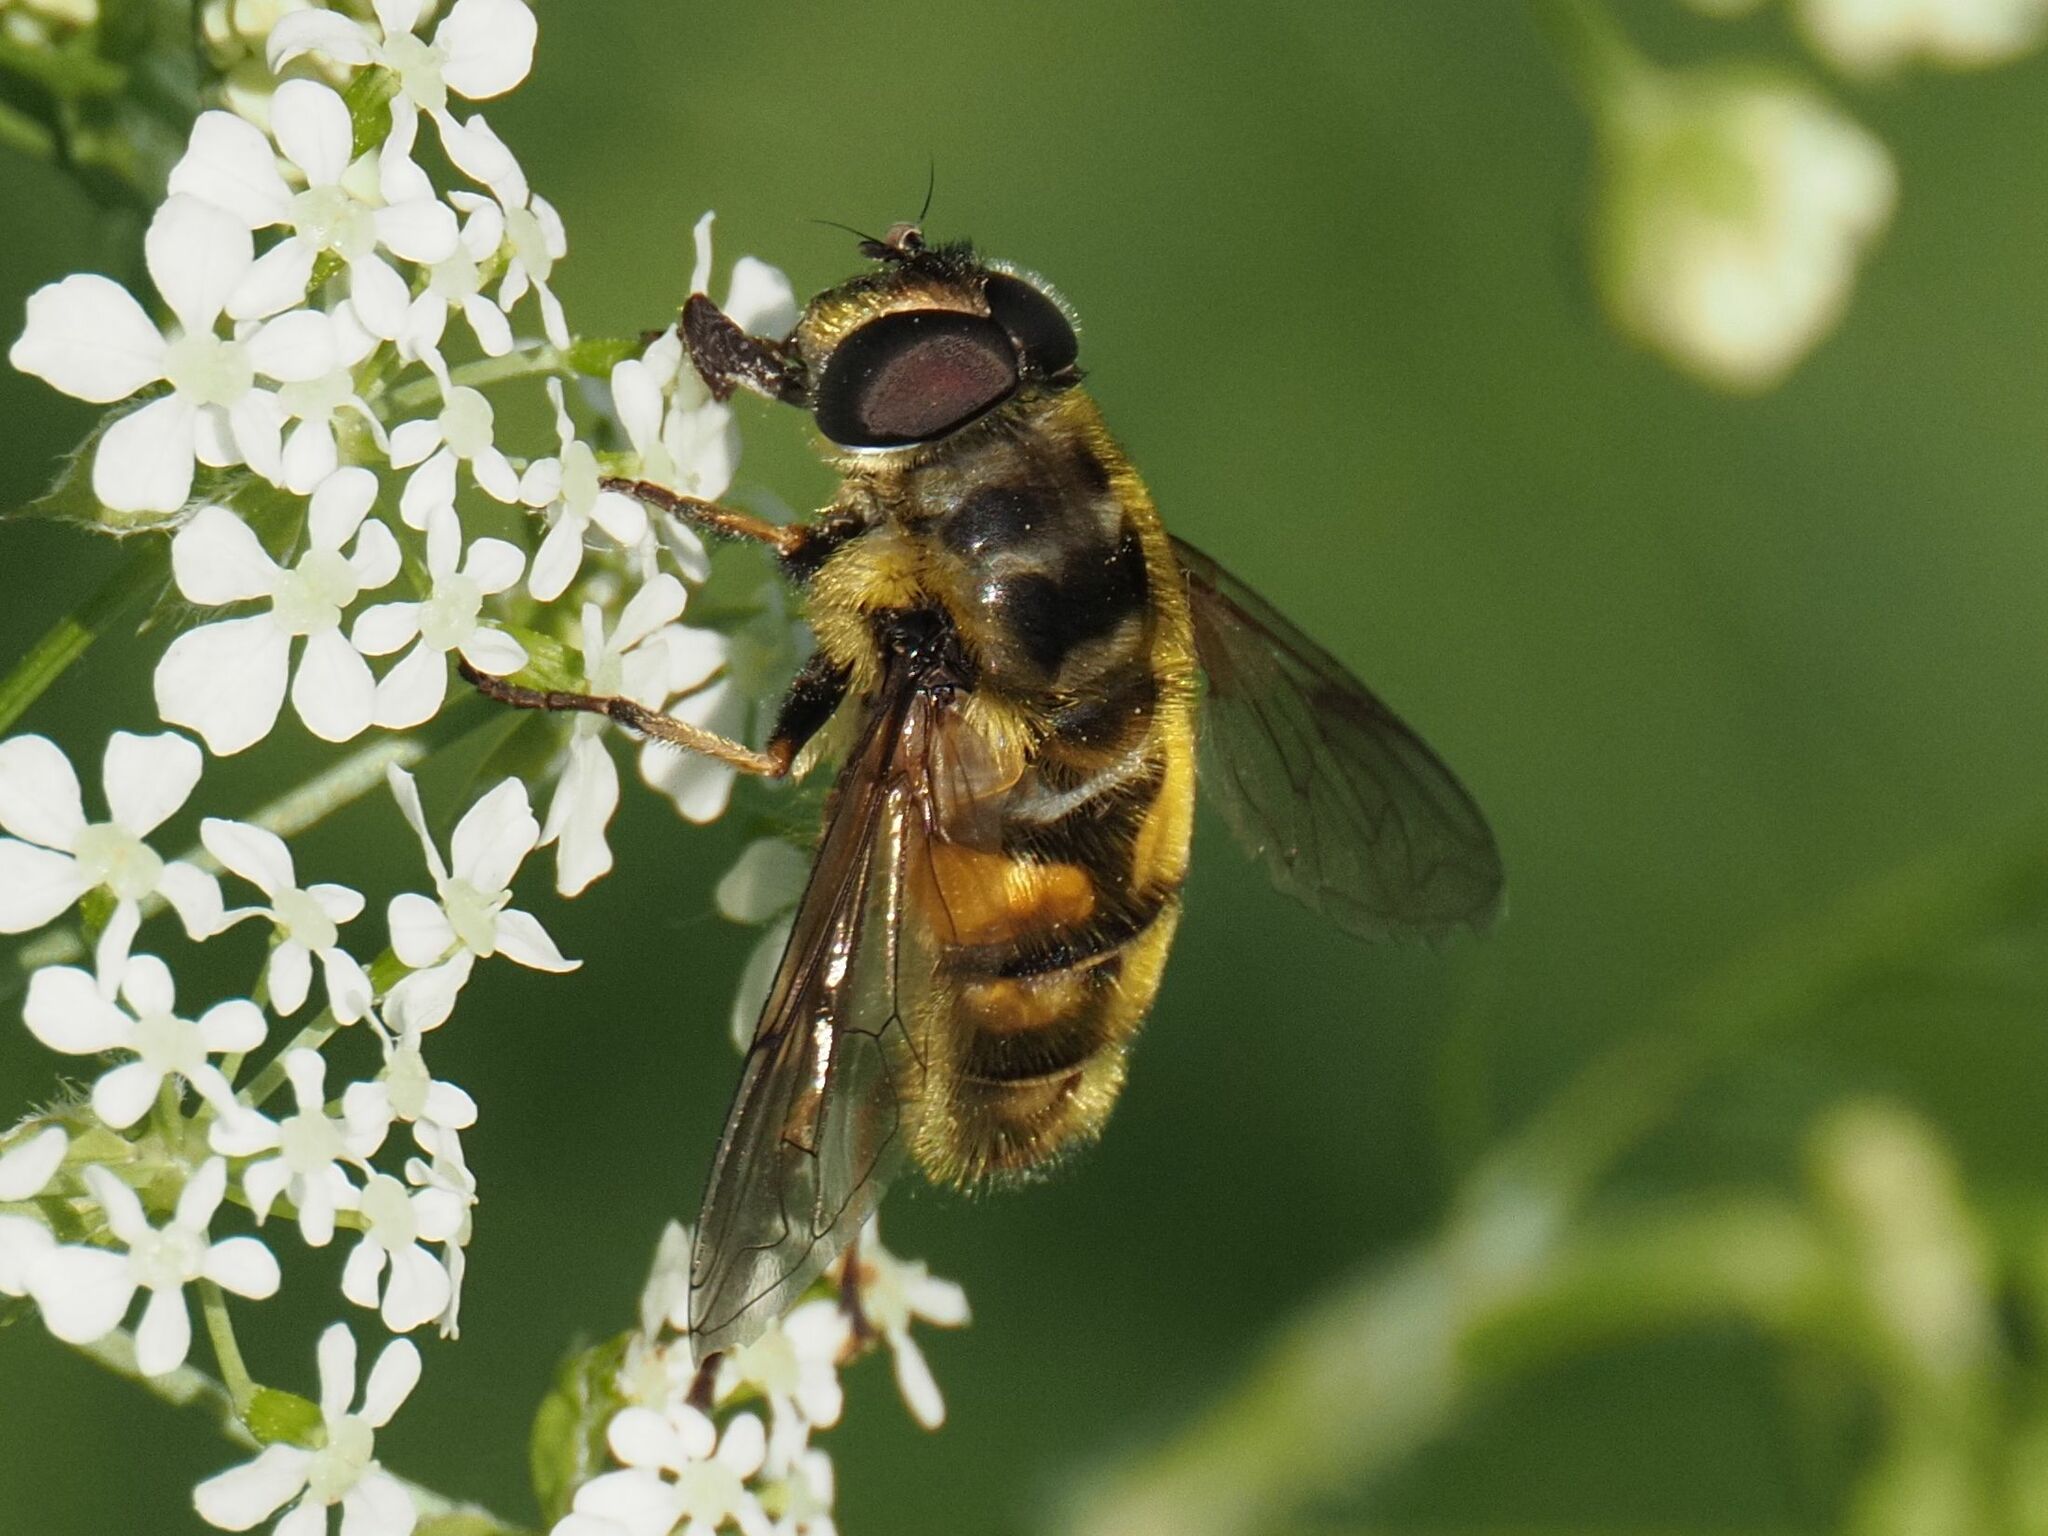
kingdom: Animalia
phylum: Arthropoda
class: Insecta
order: Diptera
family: Syrphidae
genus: Myathropa
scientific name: Myathropa florea
